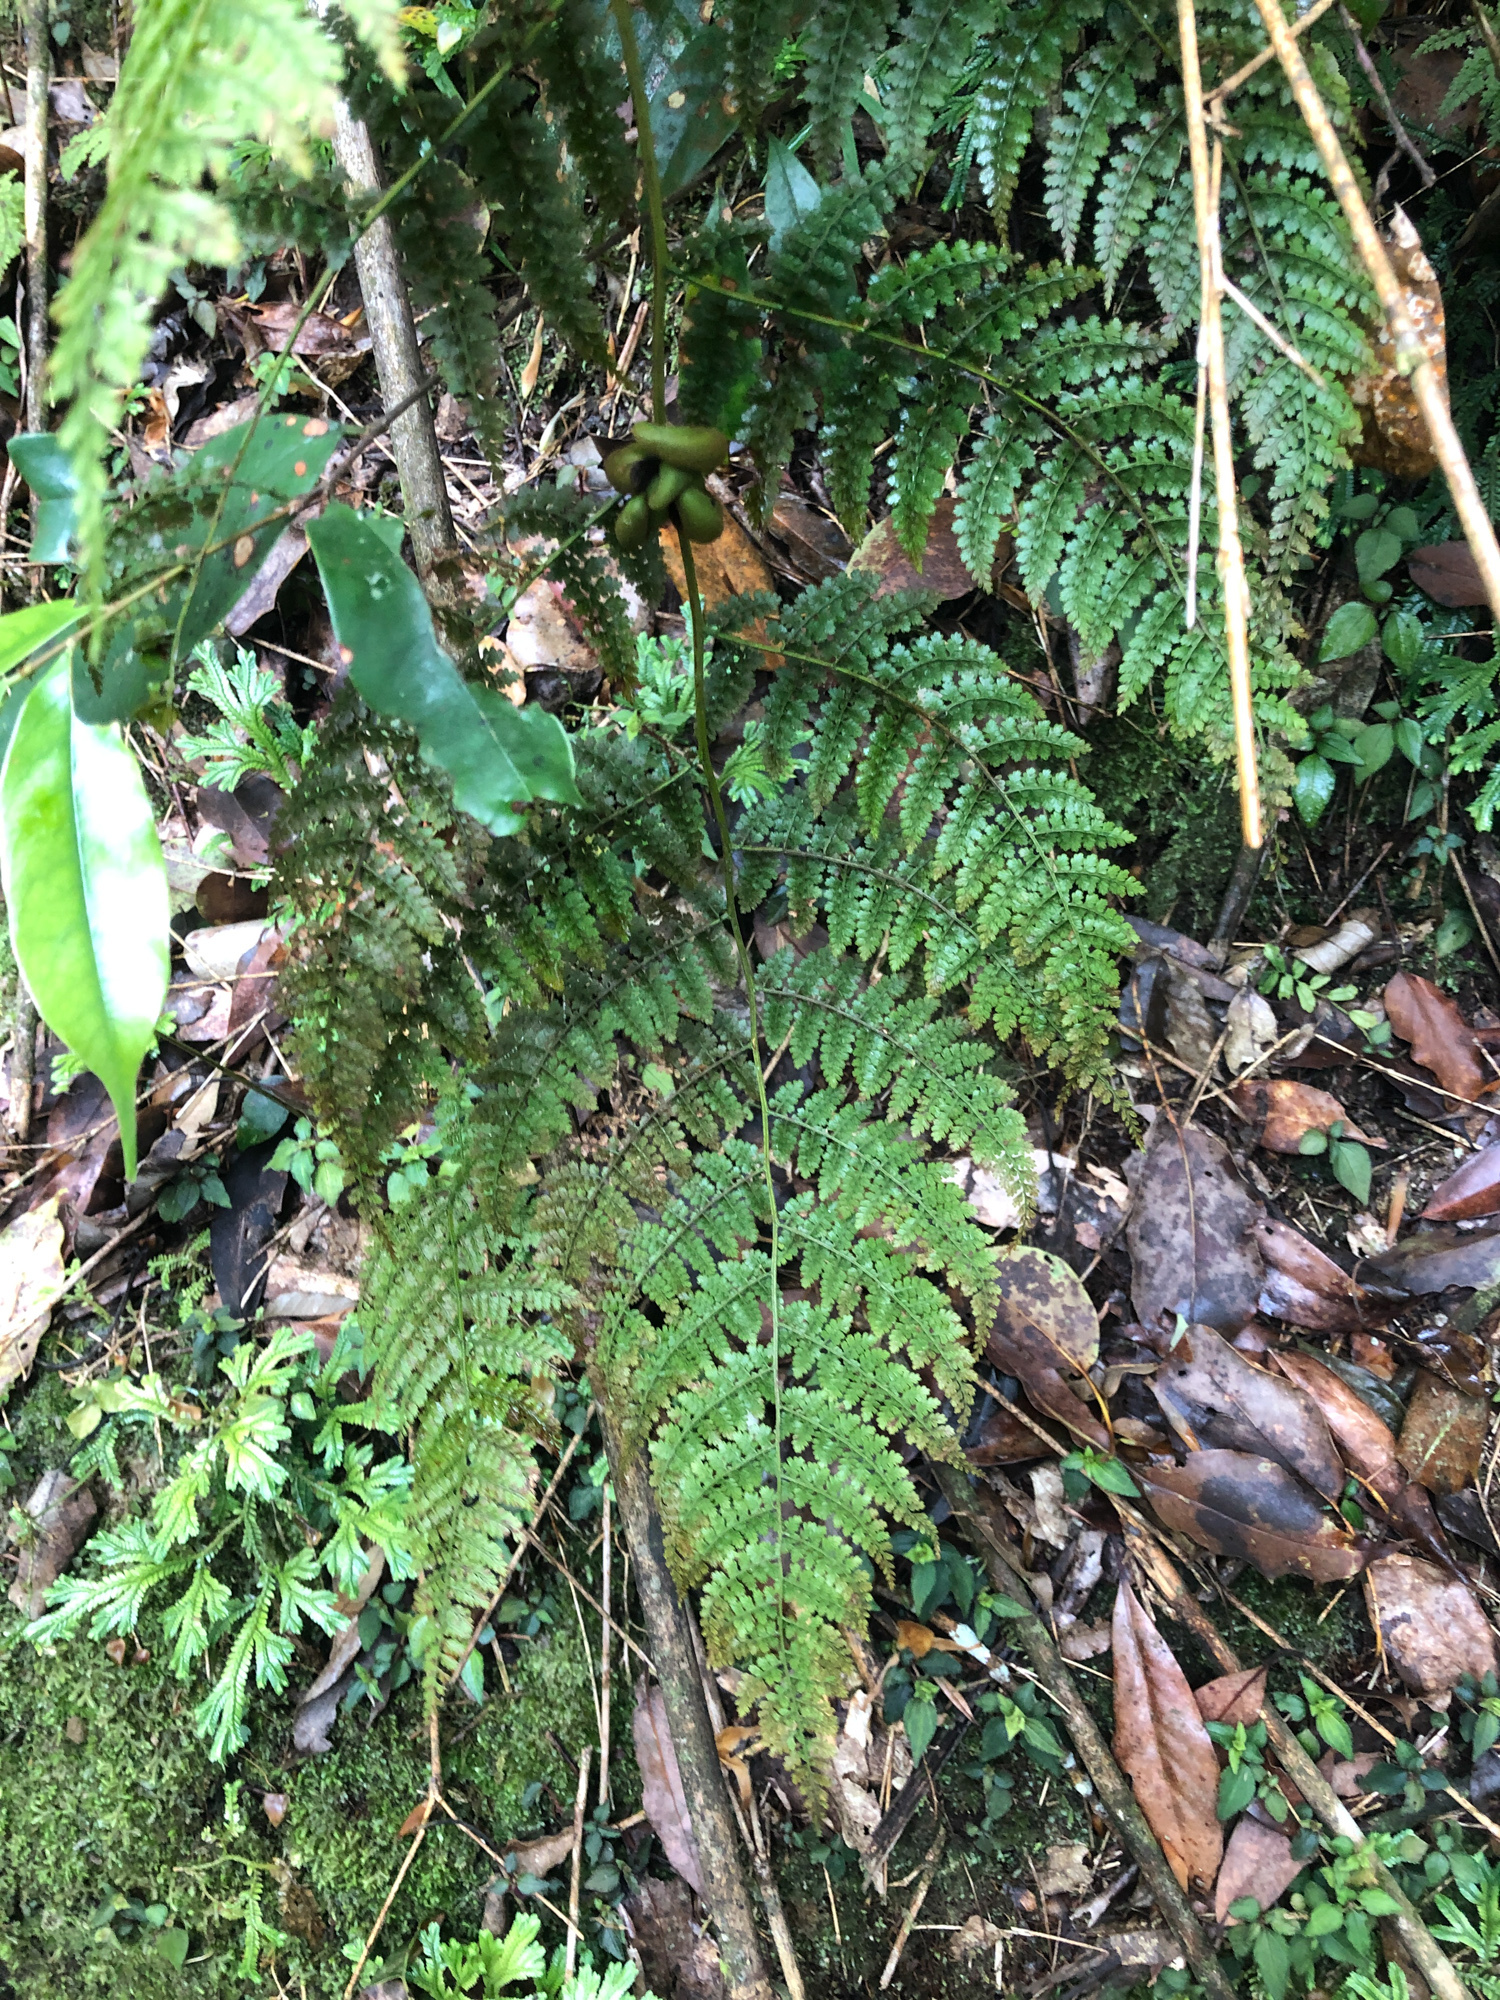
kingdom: Plantae
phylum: Tracheophyta
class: Polypodiopsida
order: Polypodiales
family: Dennstaedtiaceae
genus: Monachosorum
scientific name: Monachosorum henryi
